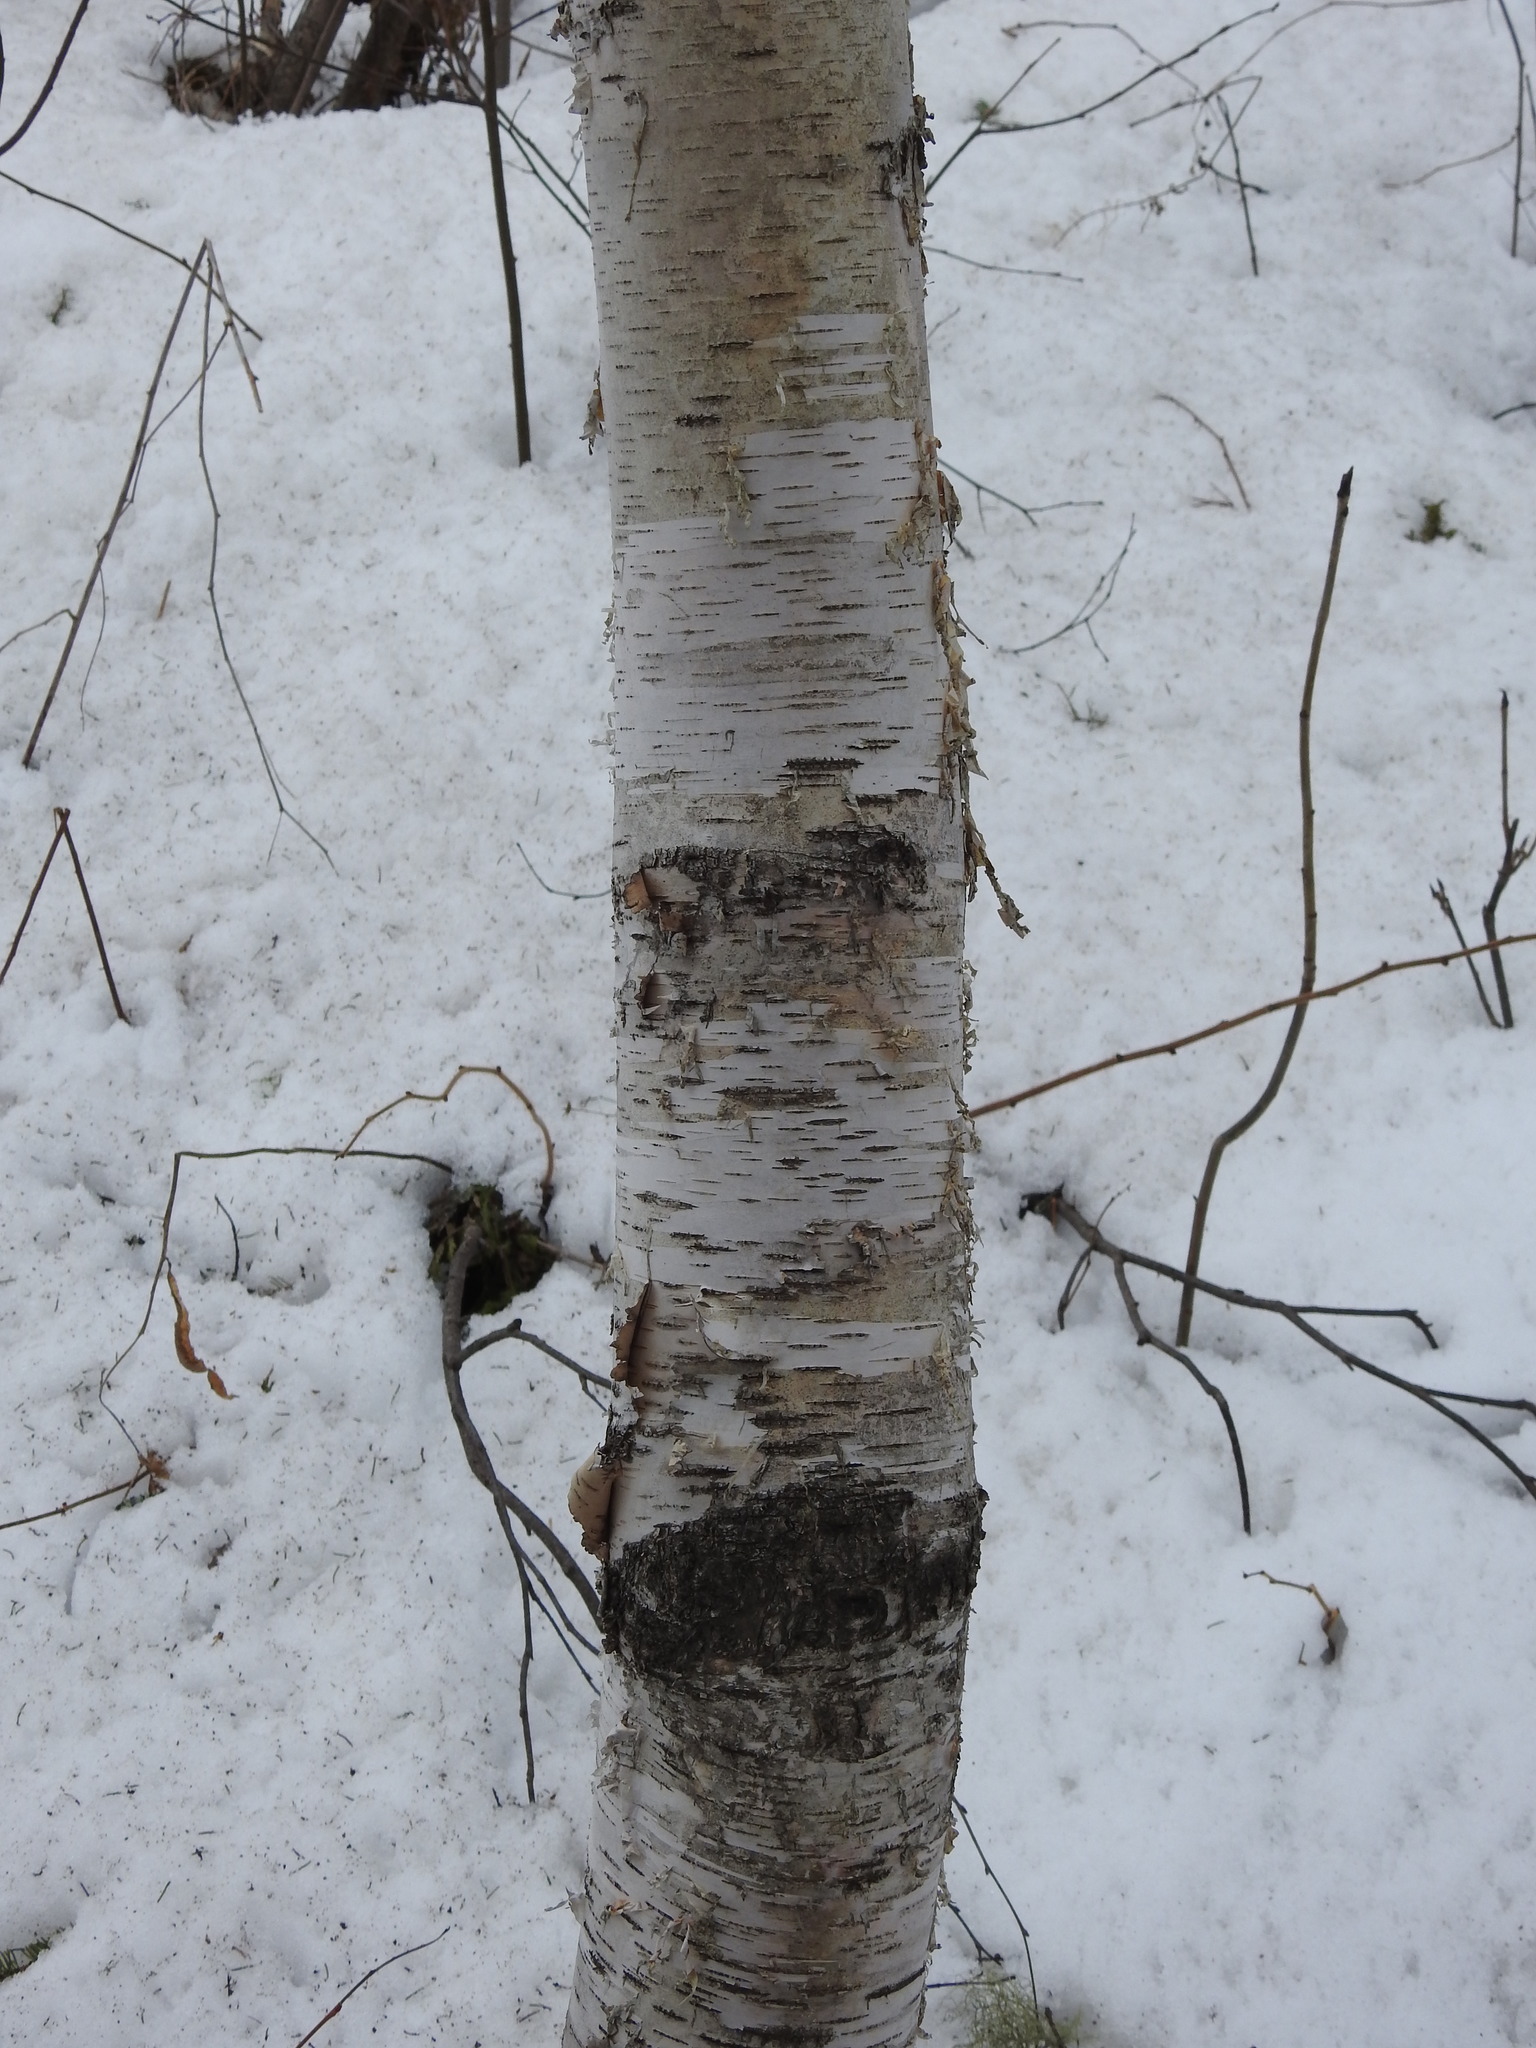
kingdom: Plantae
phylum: Tracheophyta
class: Magnoliopsida
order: Fagales
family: Betulaceae
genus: Betula
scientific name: Betula papyrifera
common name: Paper birch
